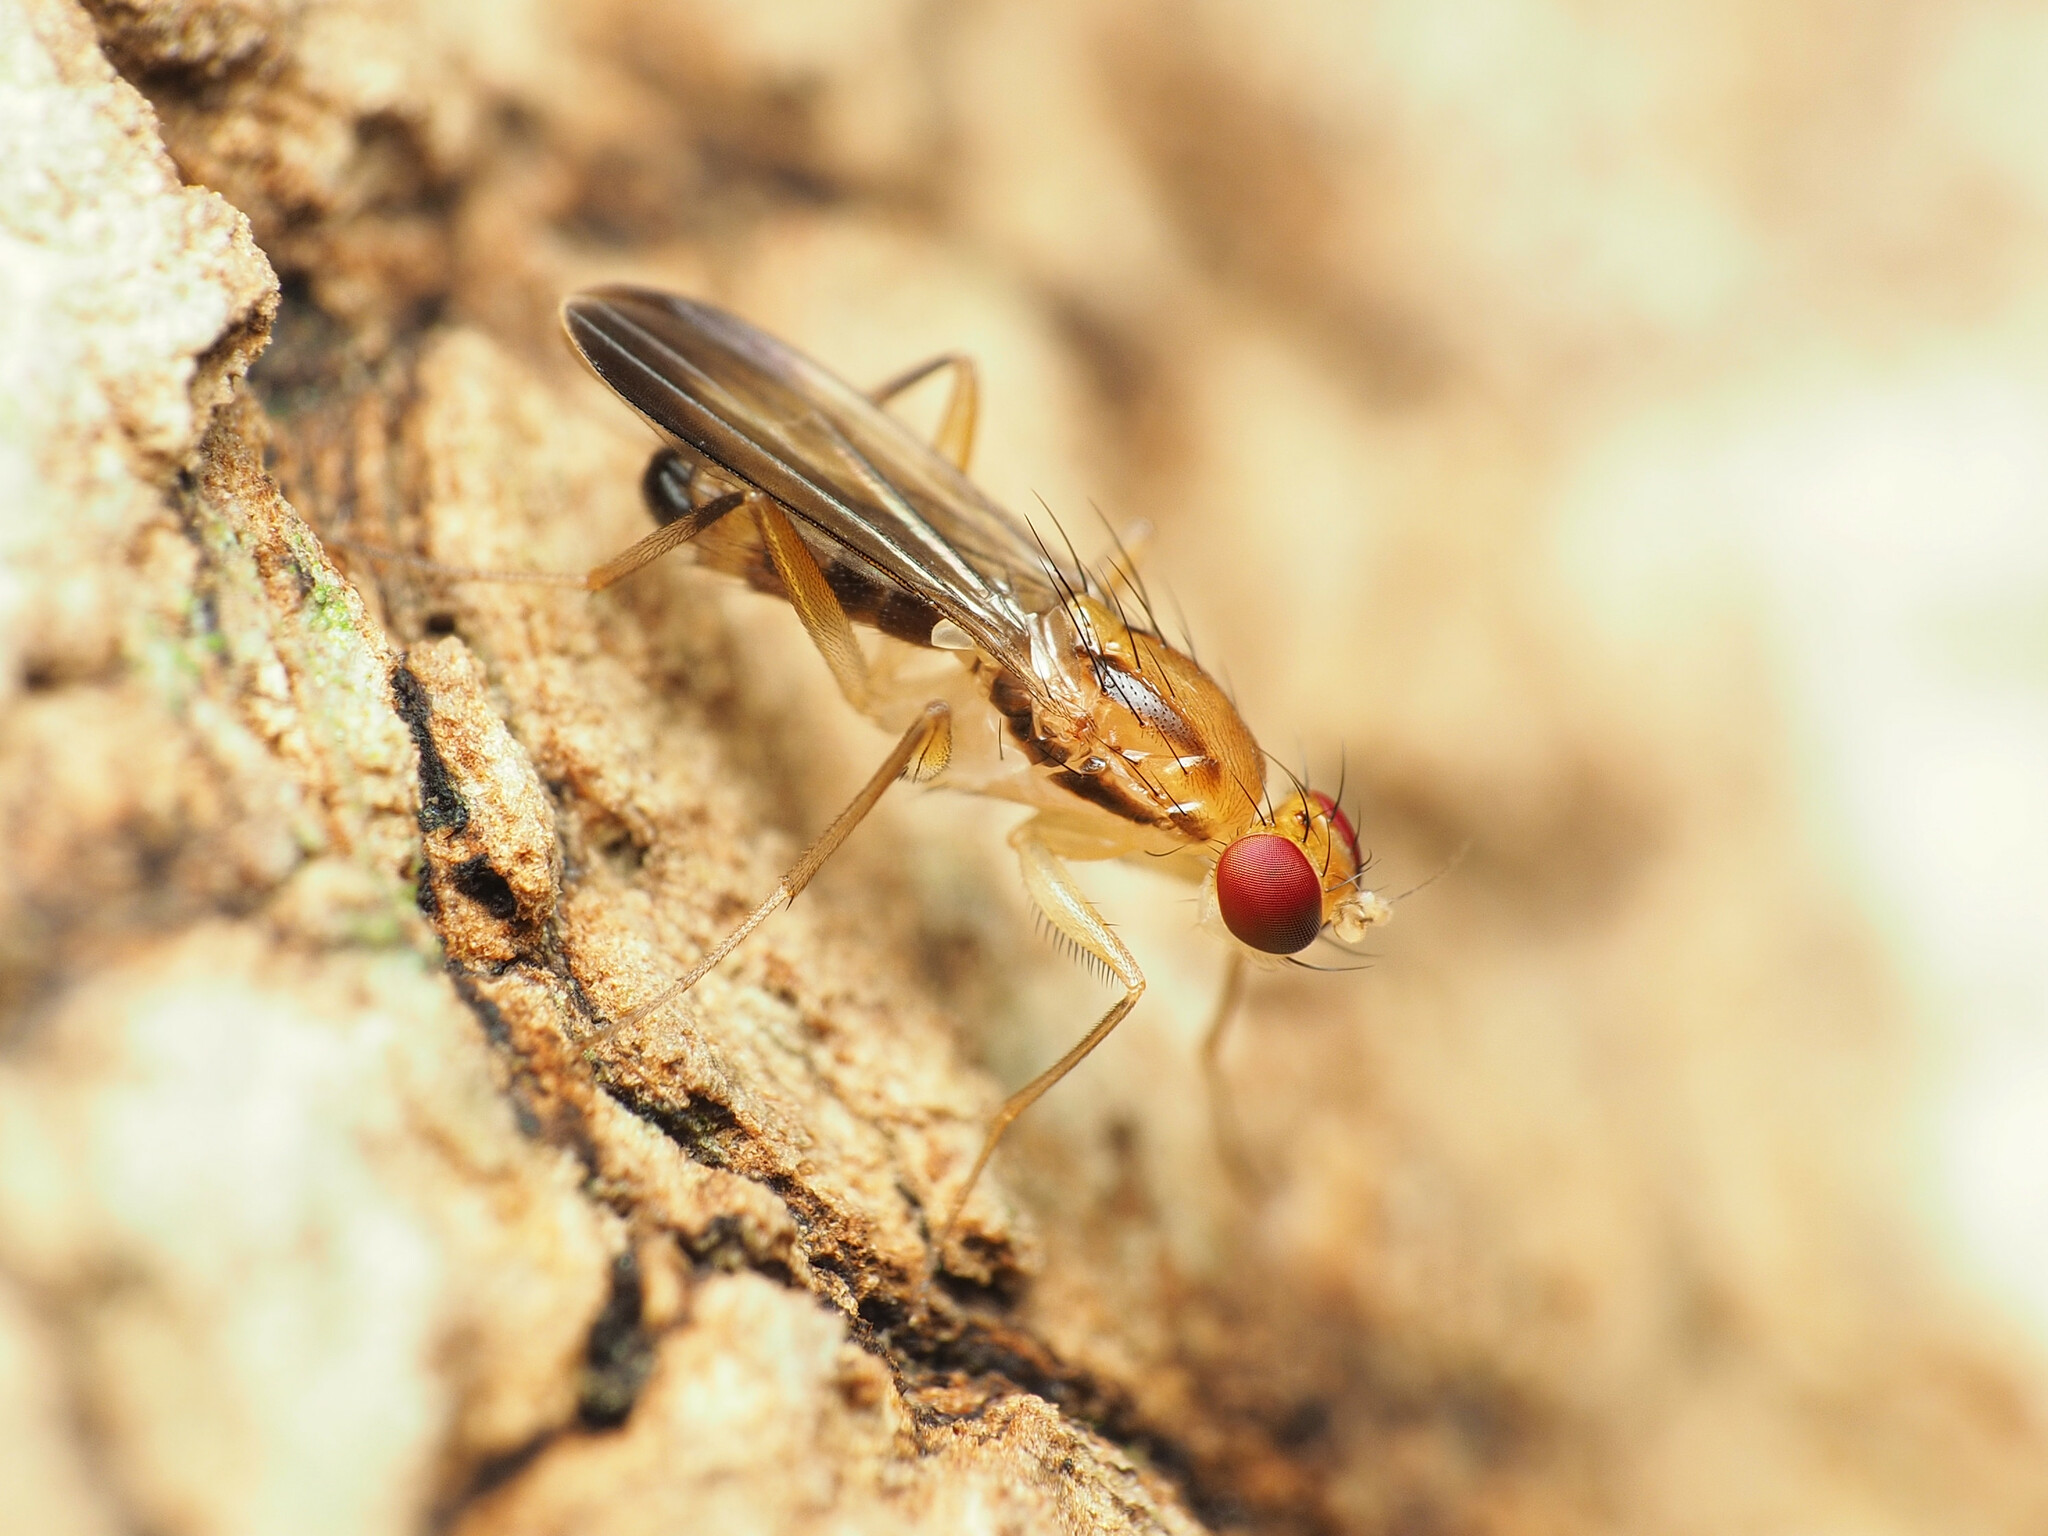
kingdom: Animalia
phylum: Arthropoda
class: Insecta
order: Diptera
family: Clusiidae
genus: Clusia
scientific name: Clusia lateralis
